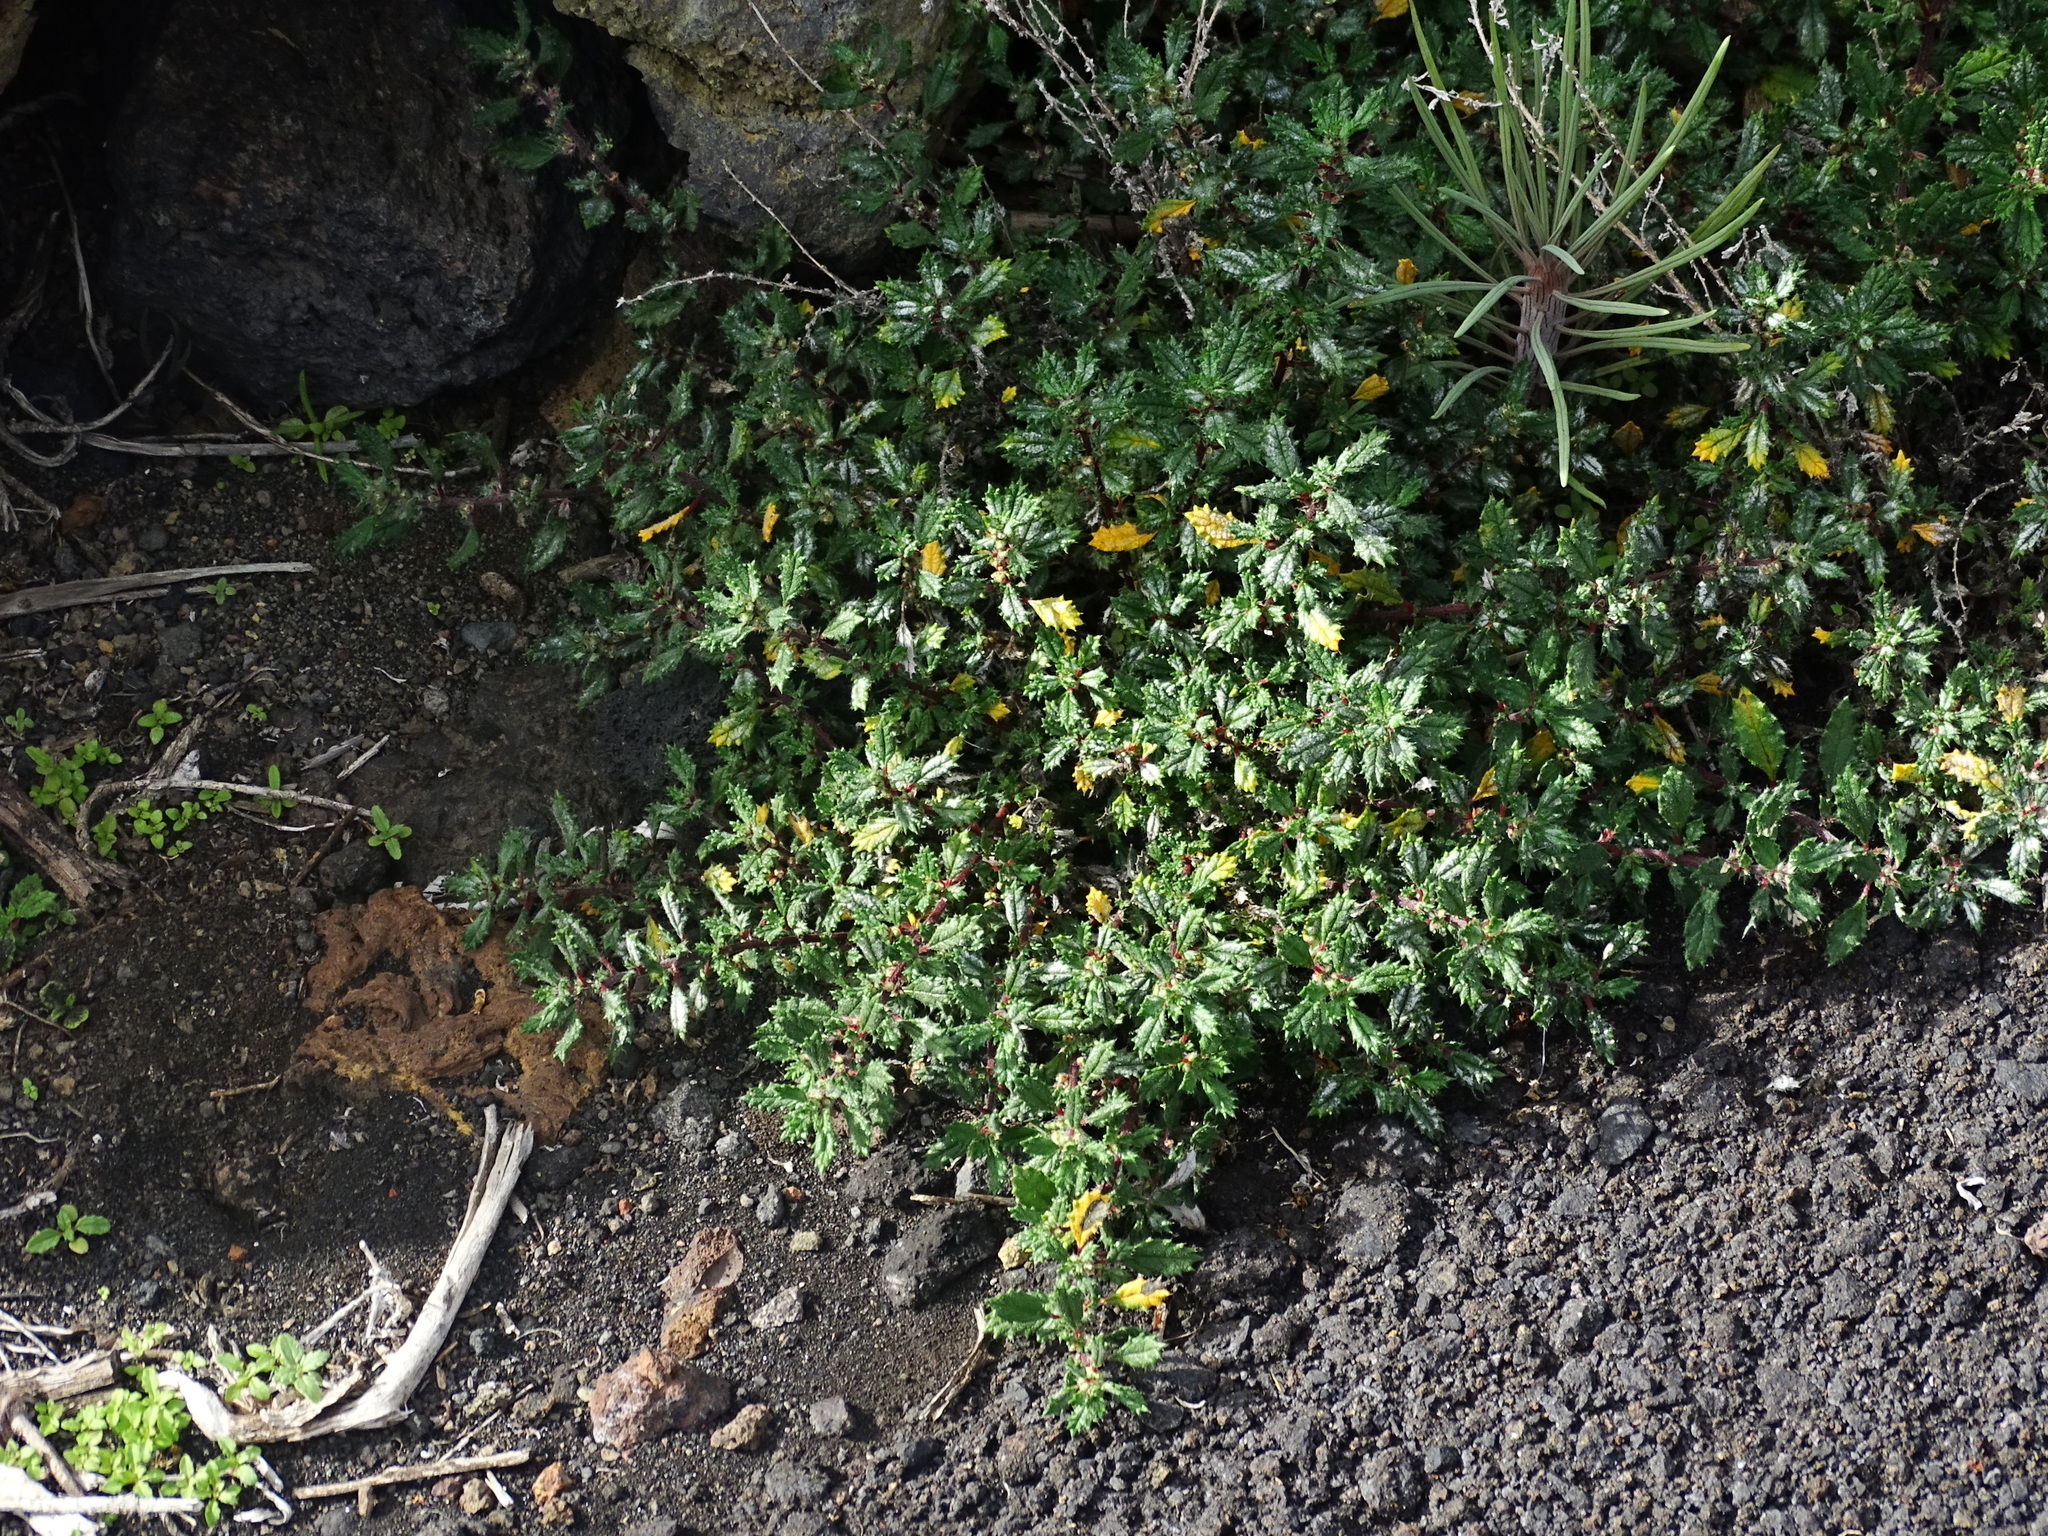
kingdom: Plantae
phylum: Tracheophyta
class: Magnoliopsida
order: Rosales
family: Urticaceae
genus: Forsskaolea
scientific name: Forsskaolea angustifolia
